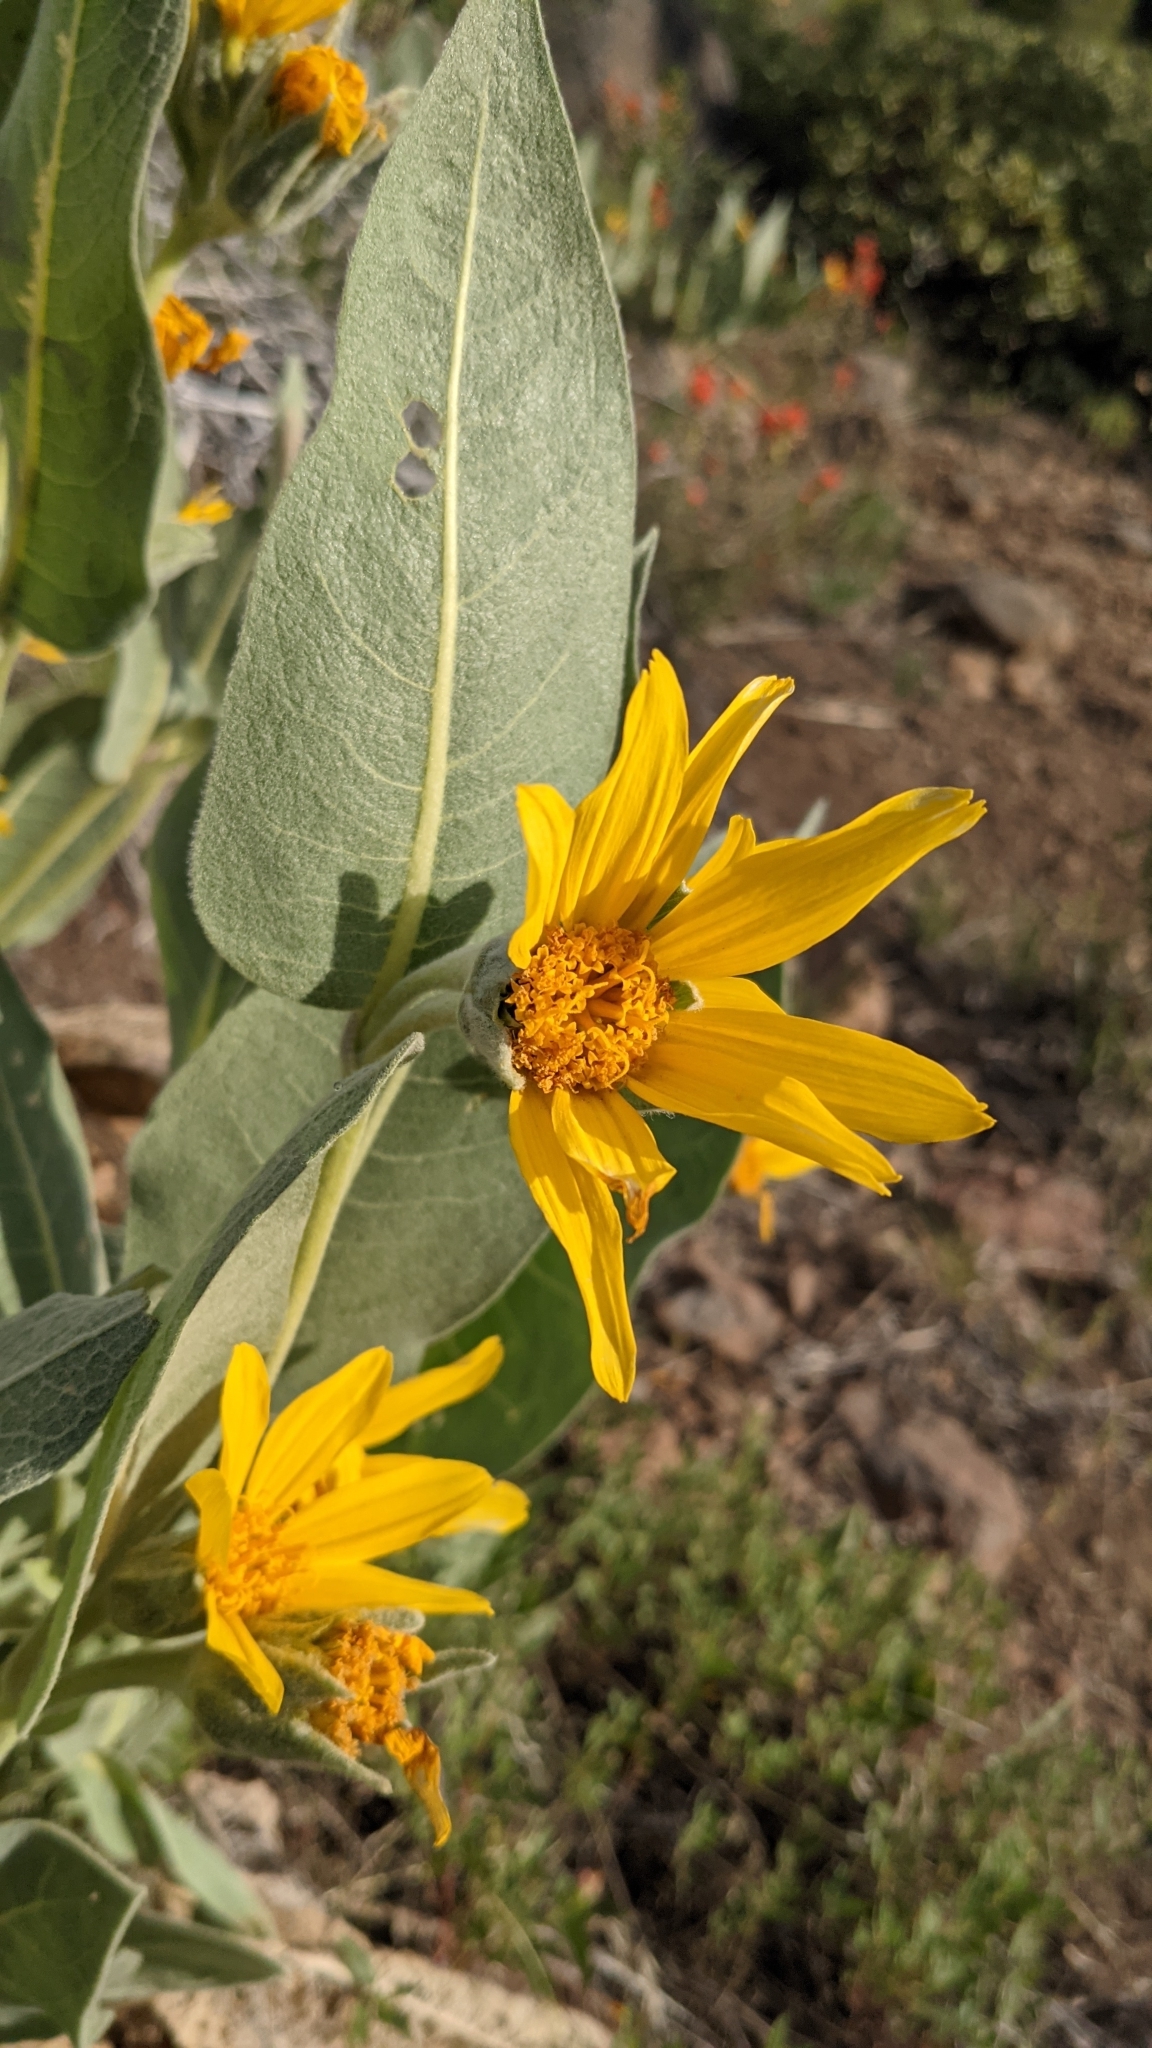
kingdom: Plantae
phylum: Tracheophyta
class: Magnoliopsida
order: Asterales
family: Asteraceae
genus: Wyethia
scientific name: Wyethia mollis
